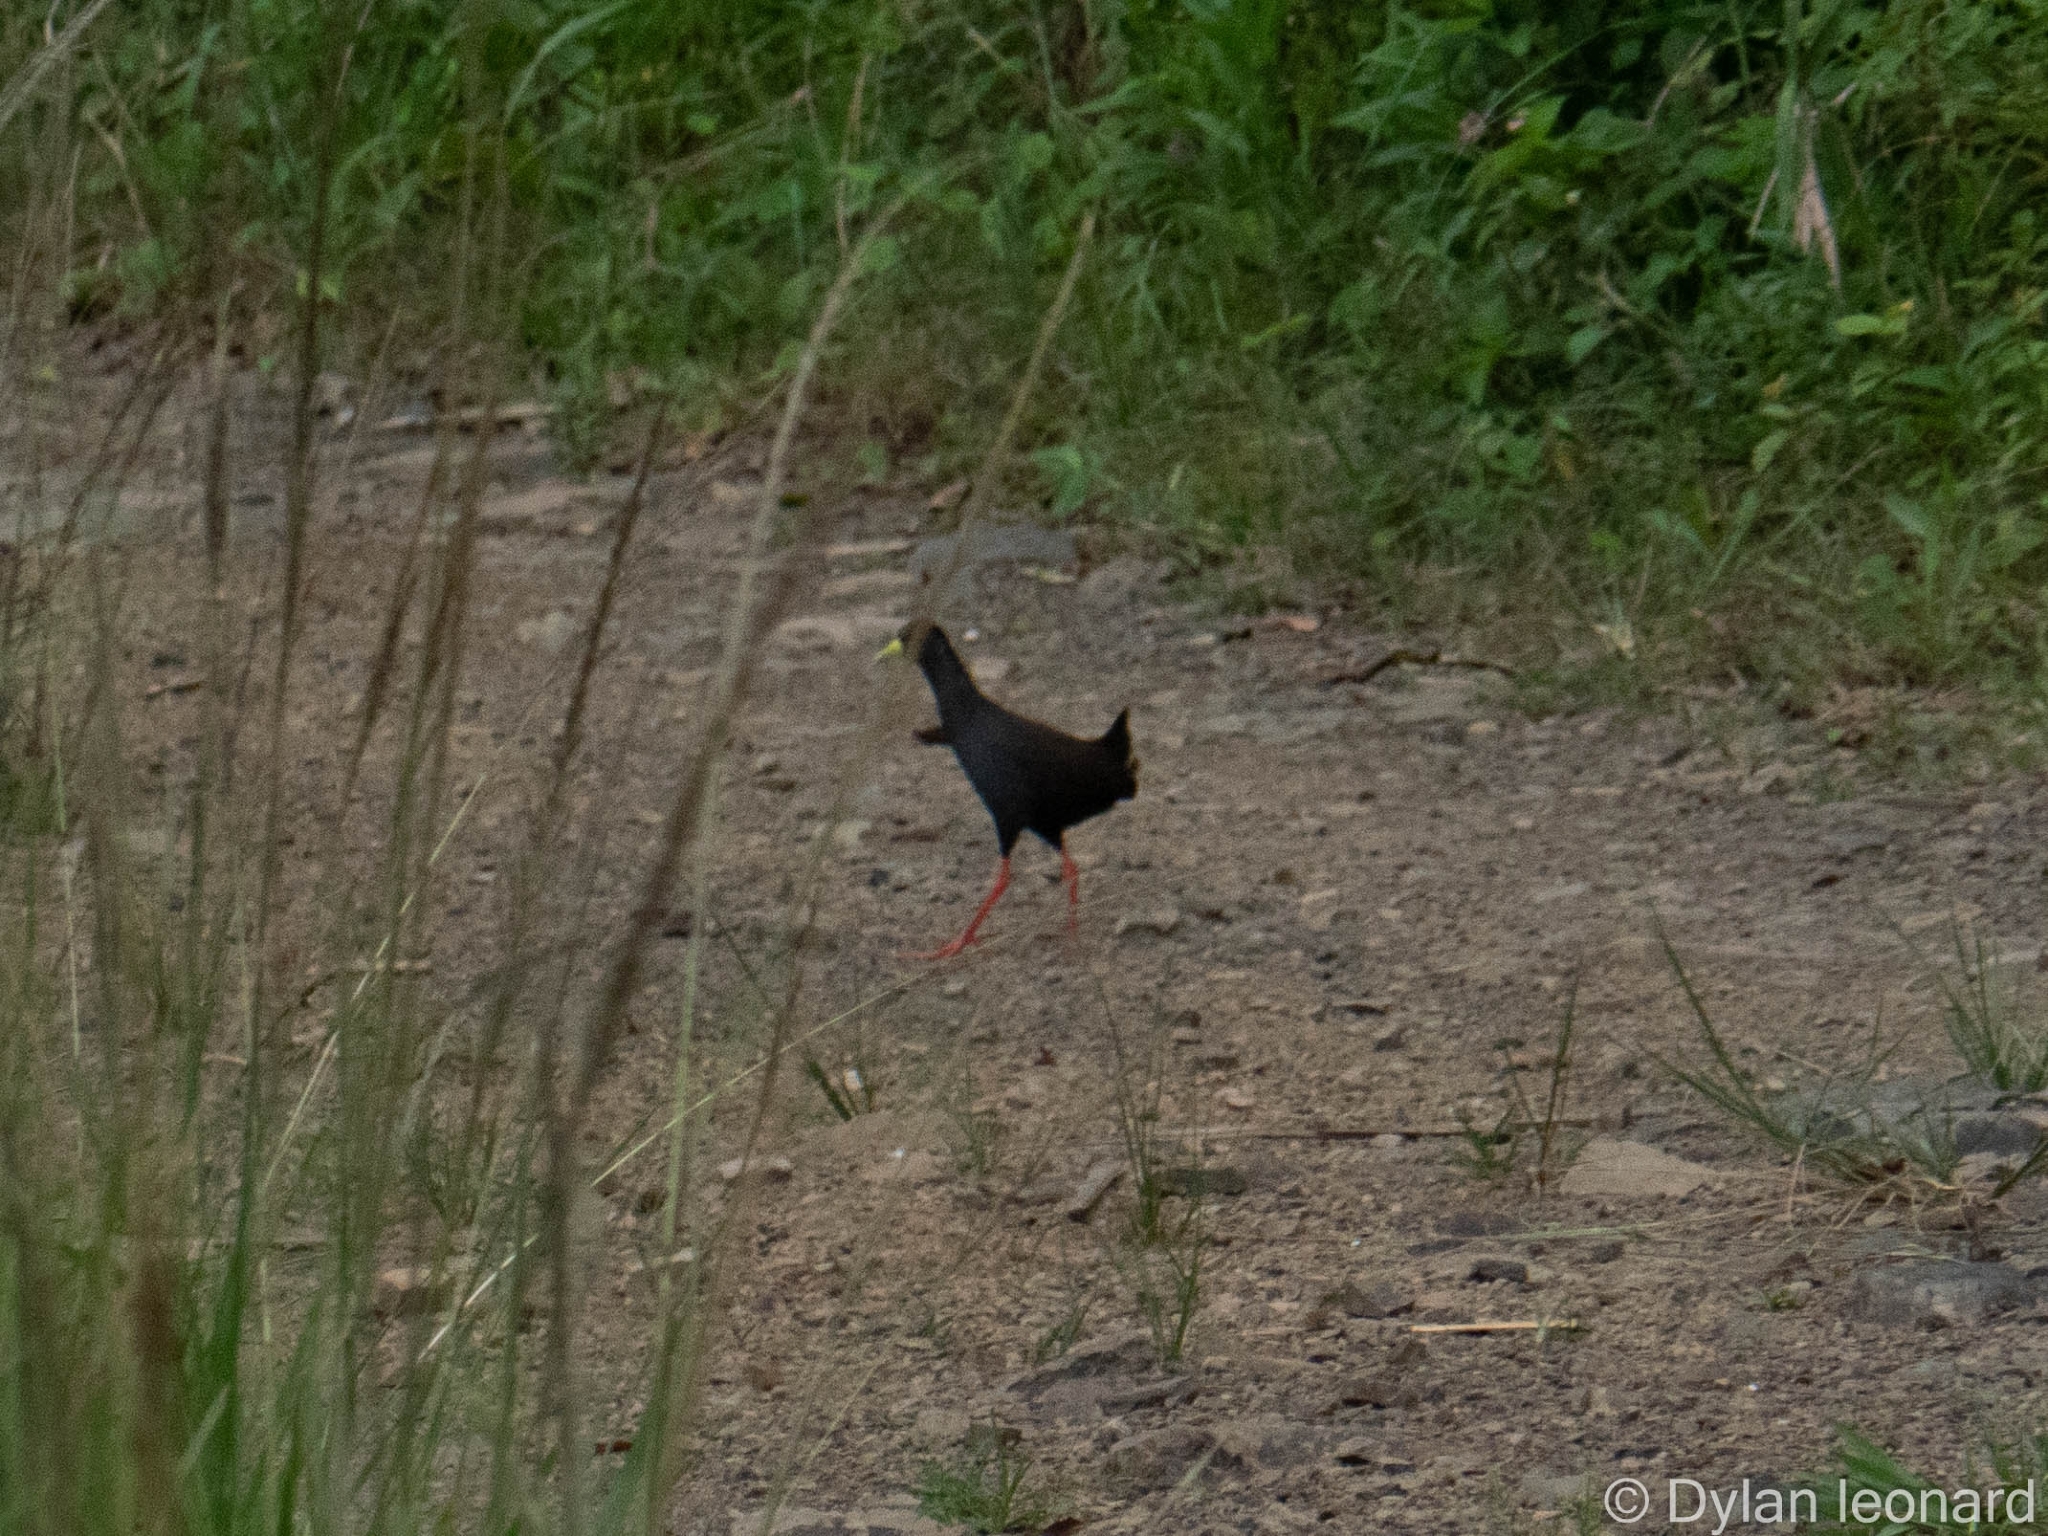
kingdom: Animalia
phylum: Chordata
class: Aves
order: Gruiformes
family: Rallidae
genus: Amaurornis
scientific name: Amaurornis flavirostra
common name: Black crake
